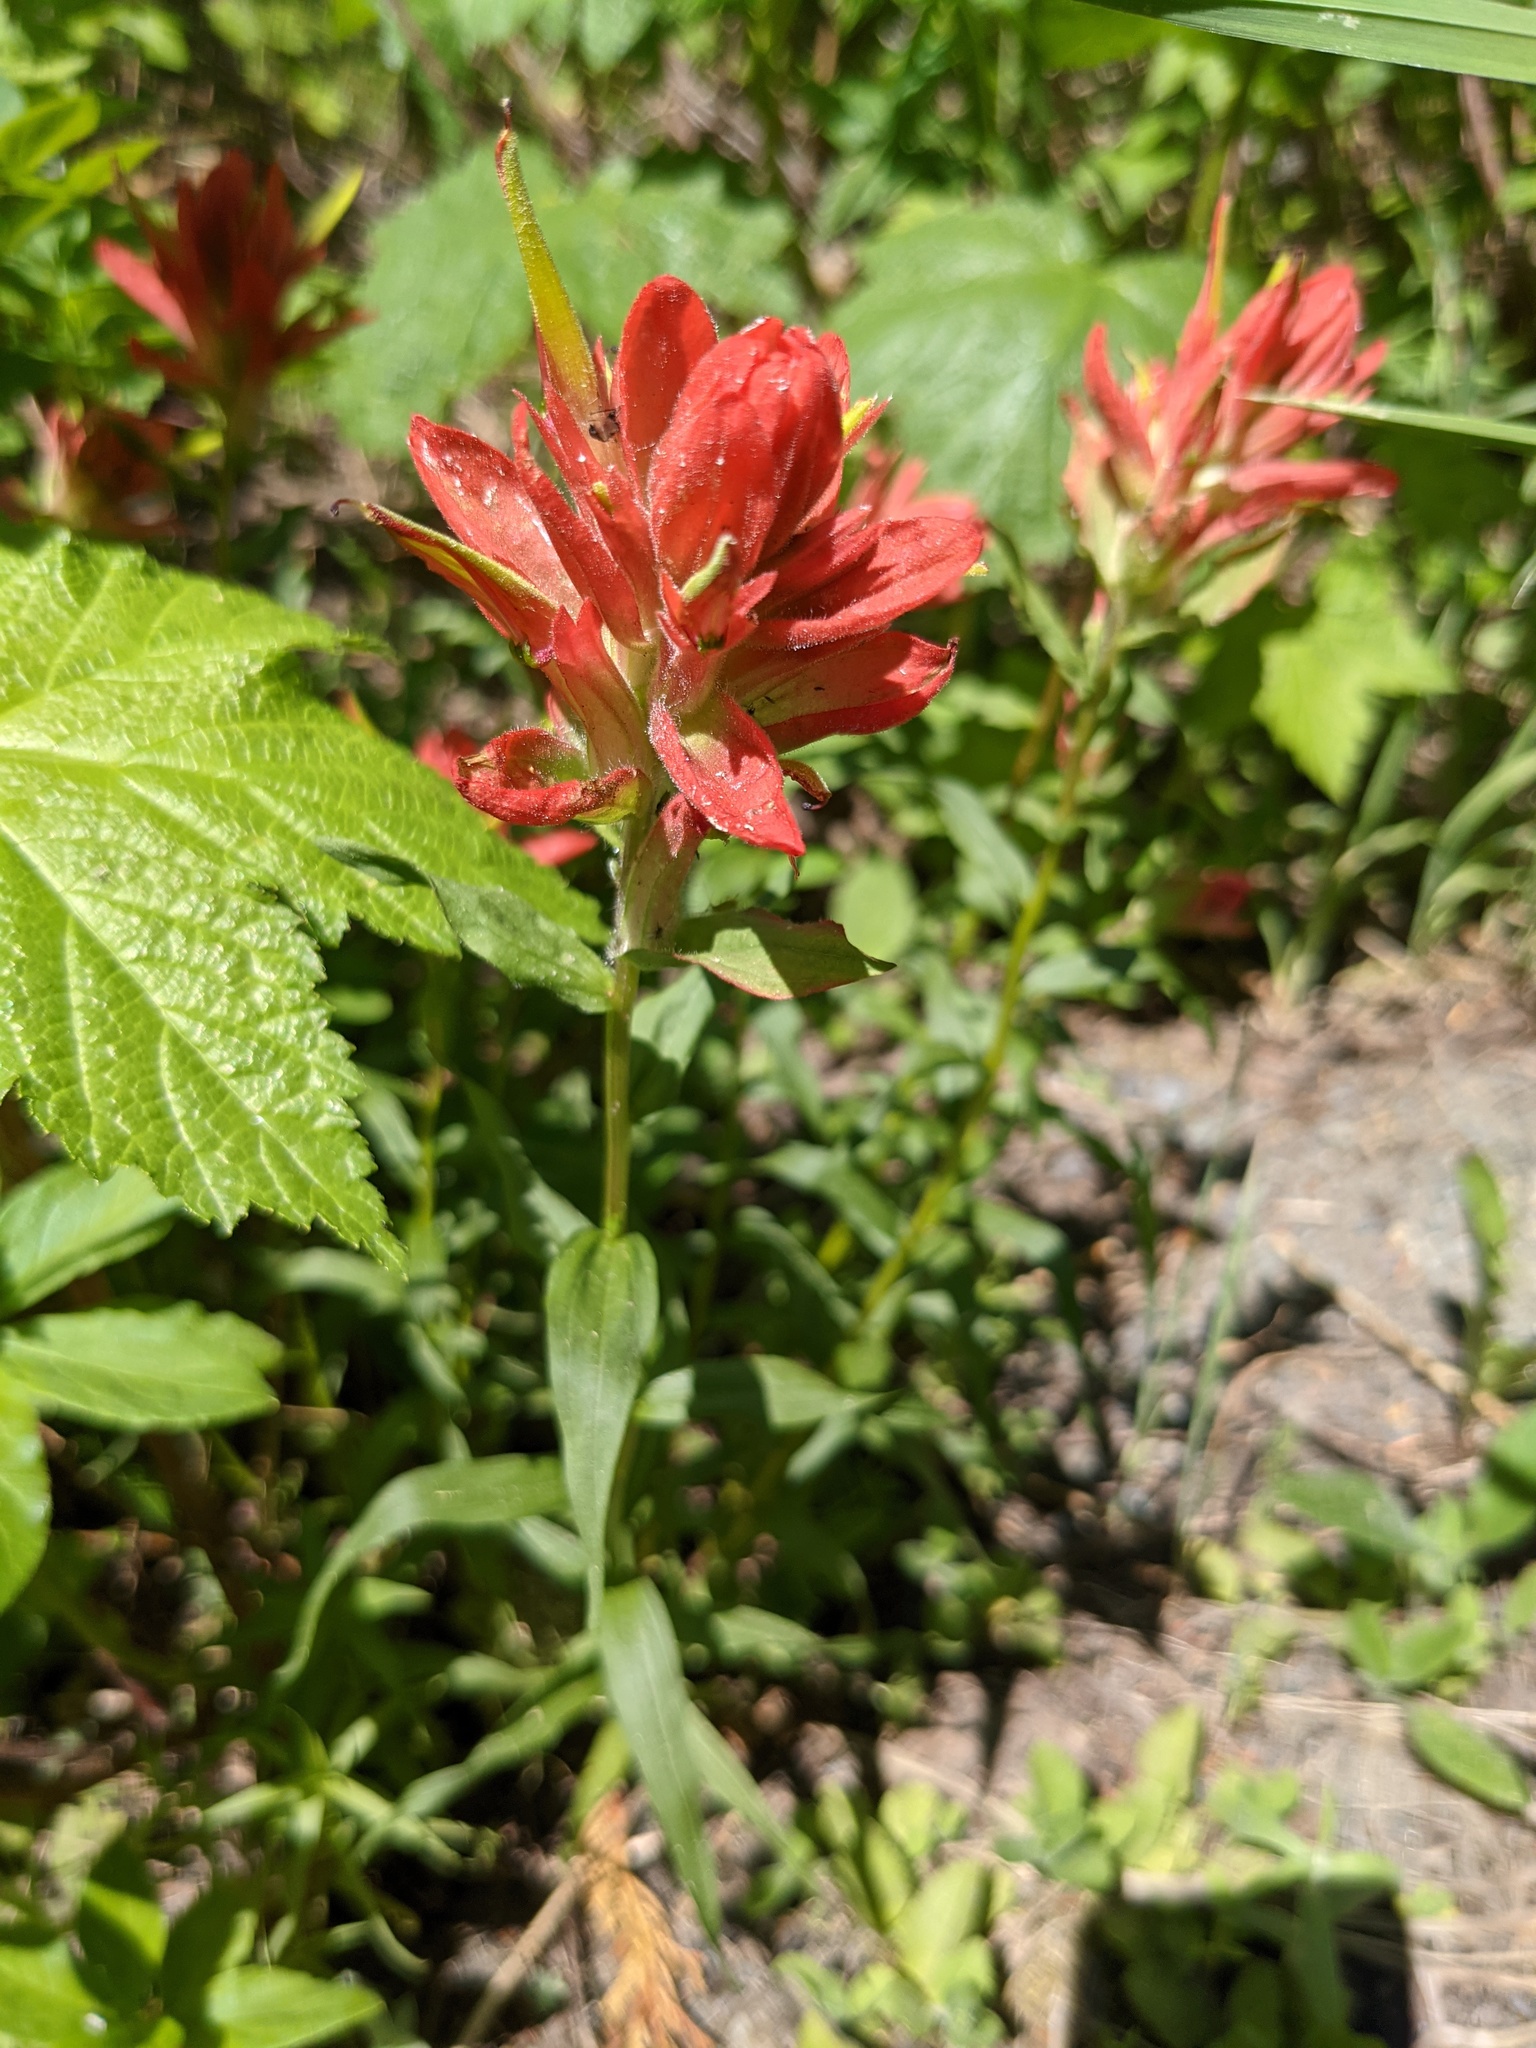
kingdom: Plantae
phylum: Tracheophyta
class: Magnoliopsida
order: Lamiales
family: Orobanchaceae
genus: Castilleja
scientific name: Castilleja miniata
